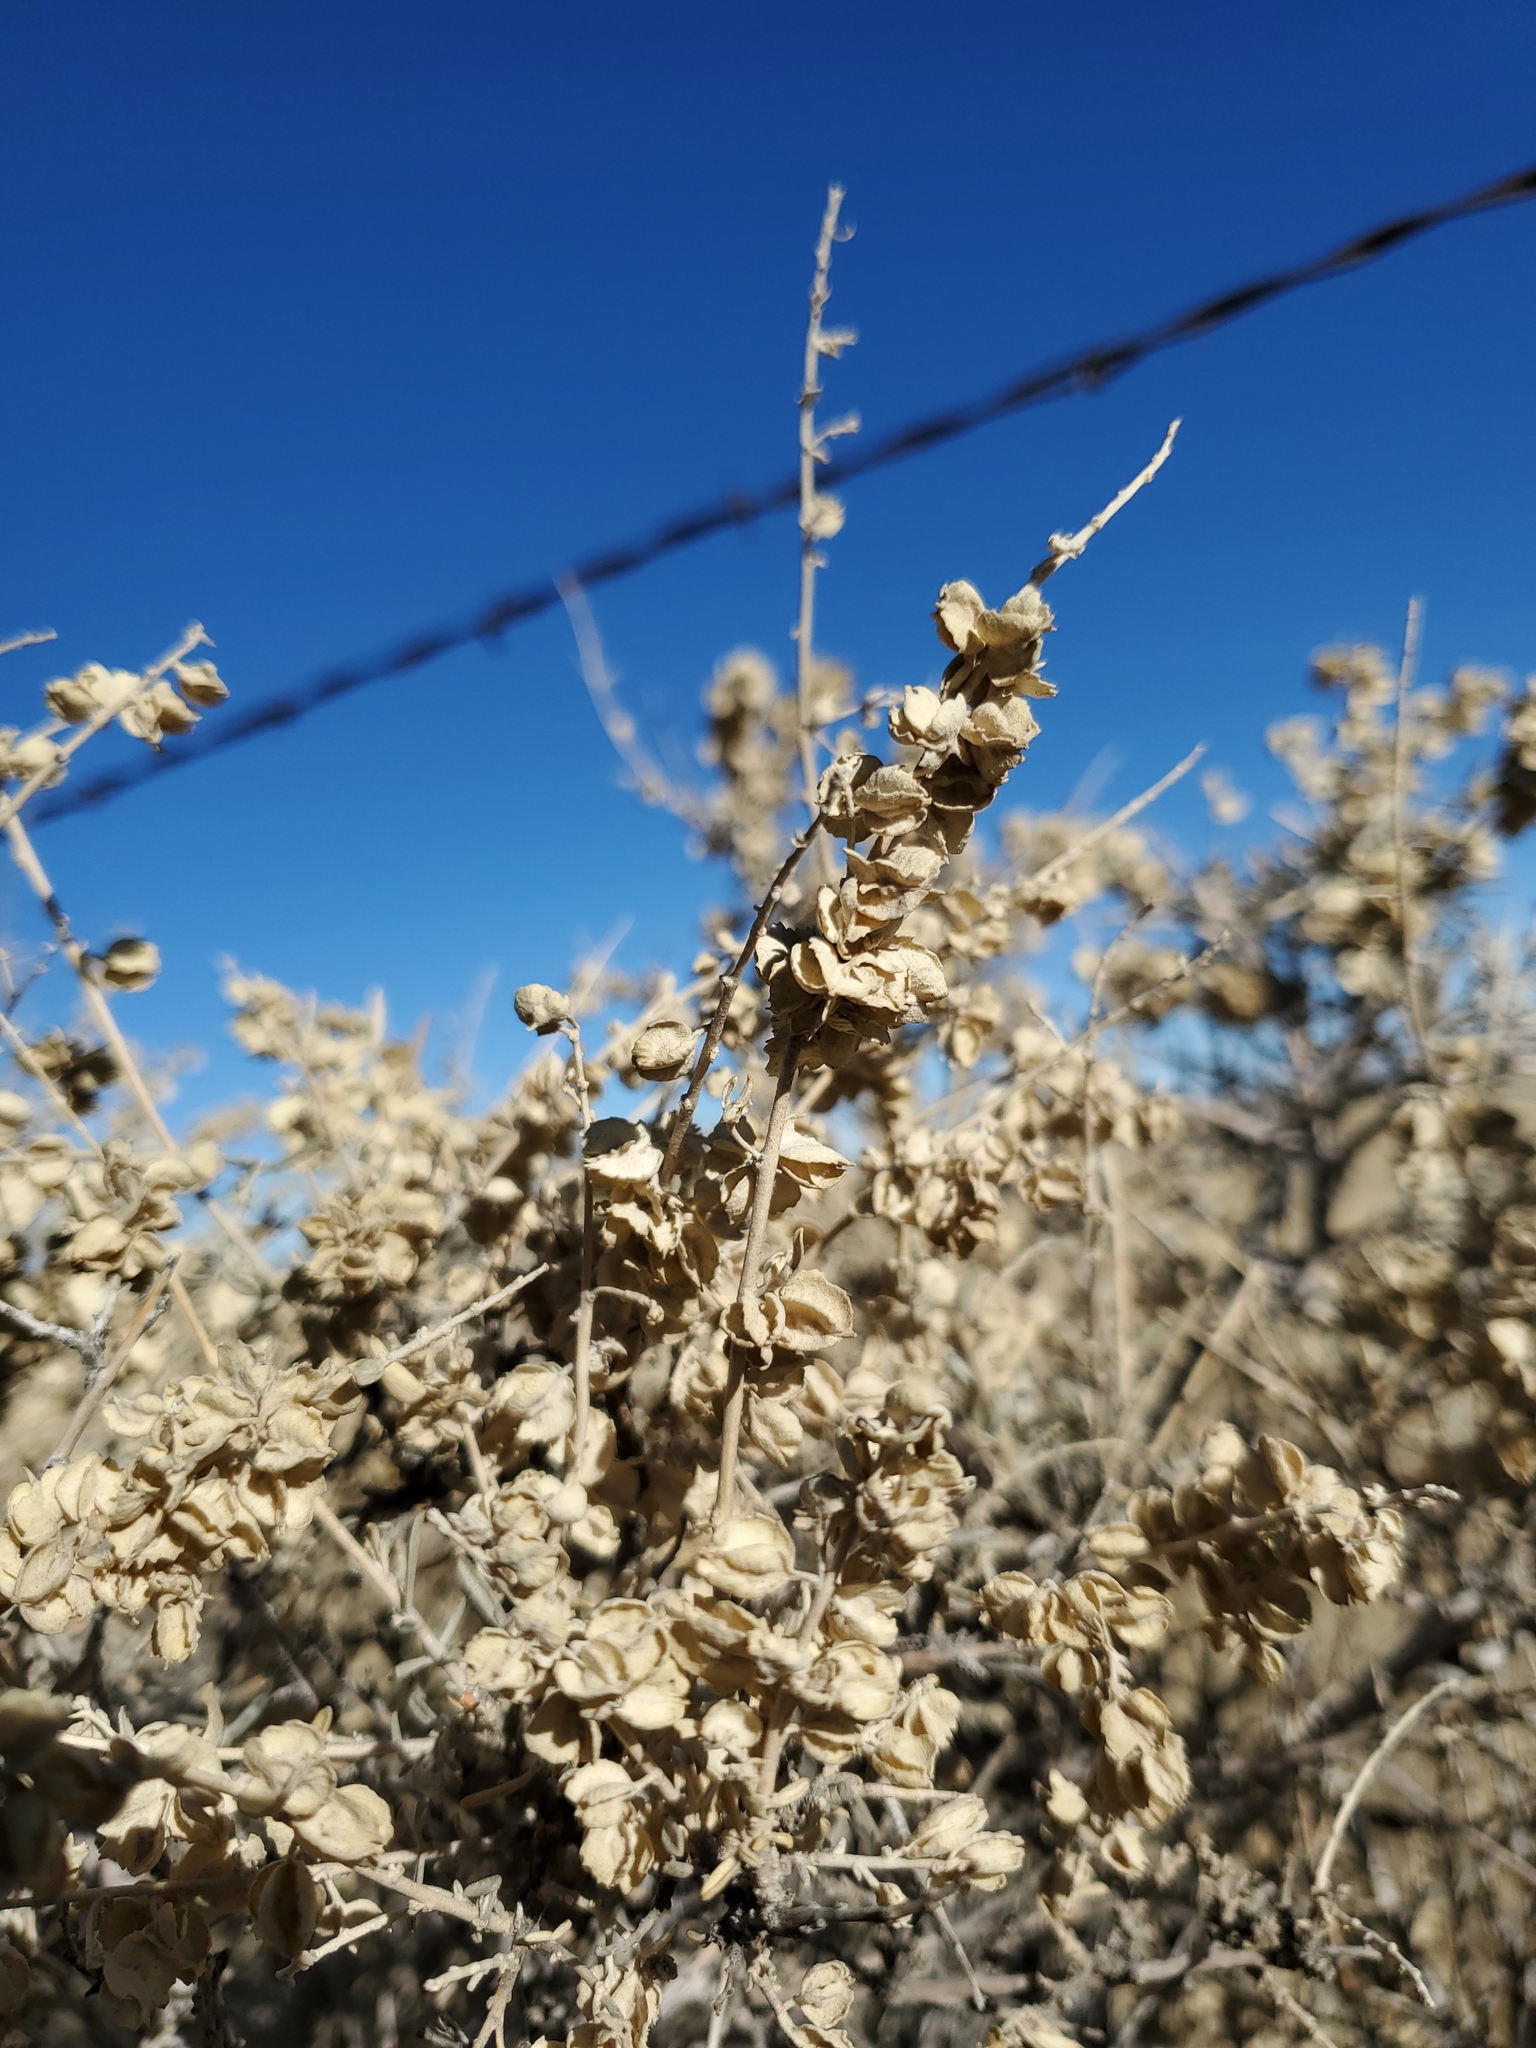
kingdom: Plantae
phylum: Tracheophyta
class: Magnoliopsida
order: Caryophyllales
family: Amaranthaceae
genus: Atriplex
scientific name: Atriplex canescens
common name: Four-wing saltbush
